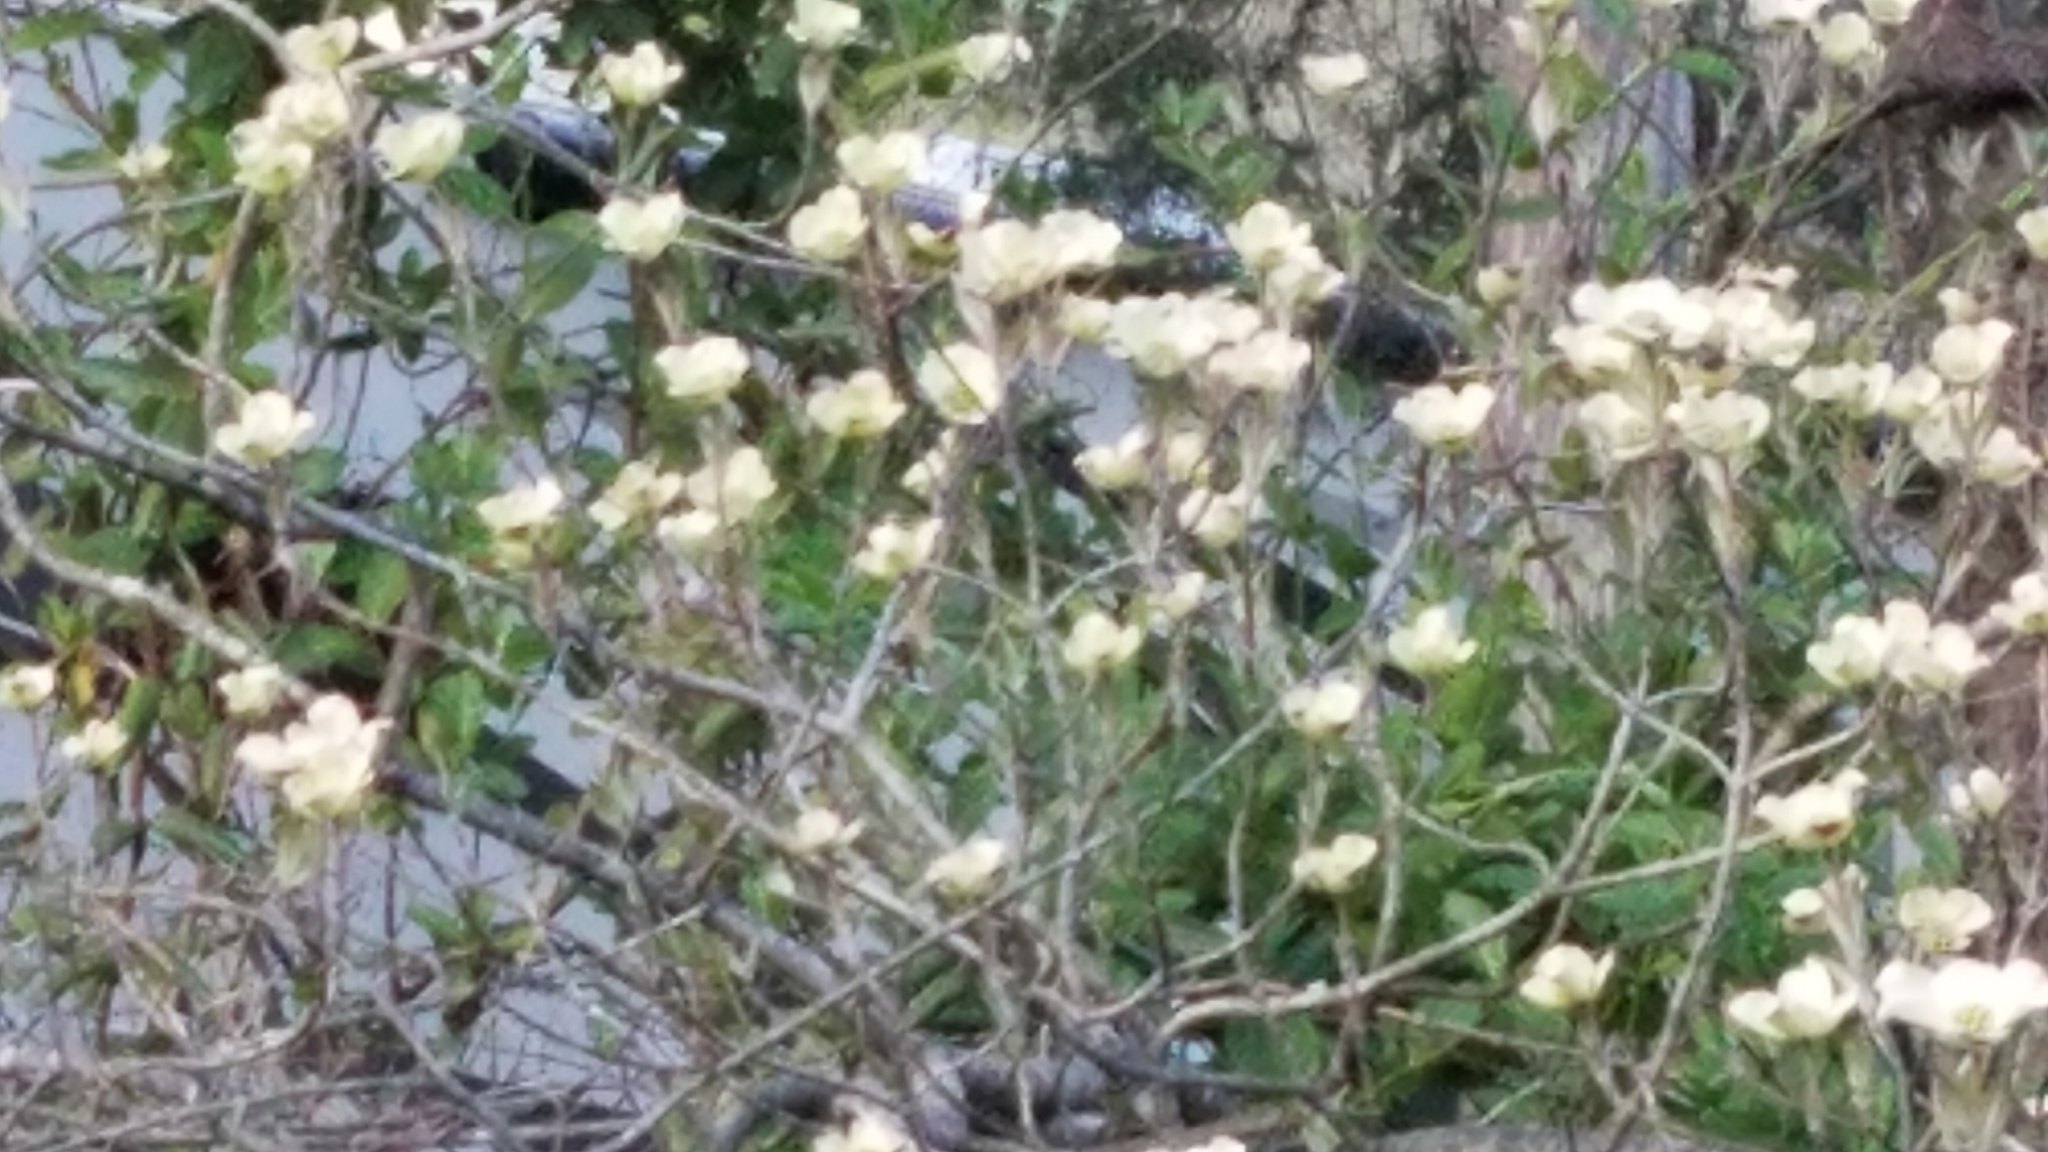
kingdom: Plantae
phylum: Tracheophyta
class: Magnoliopsida
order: Cornales
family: Cornaceae
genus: Cornus
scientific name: Cornus florida
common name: Flowering dogwood
